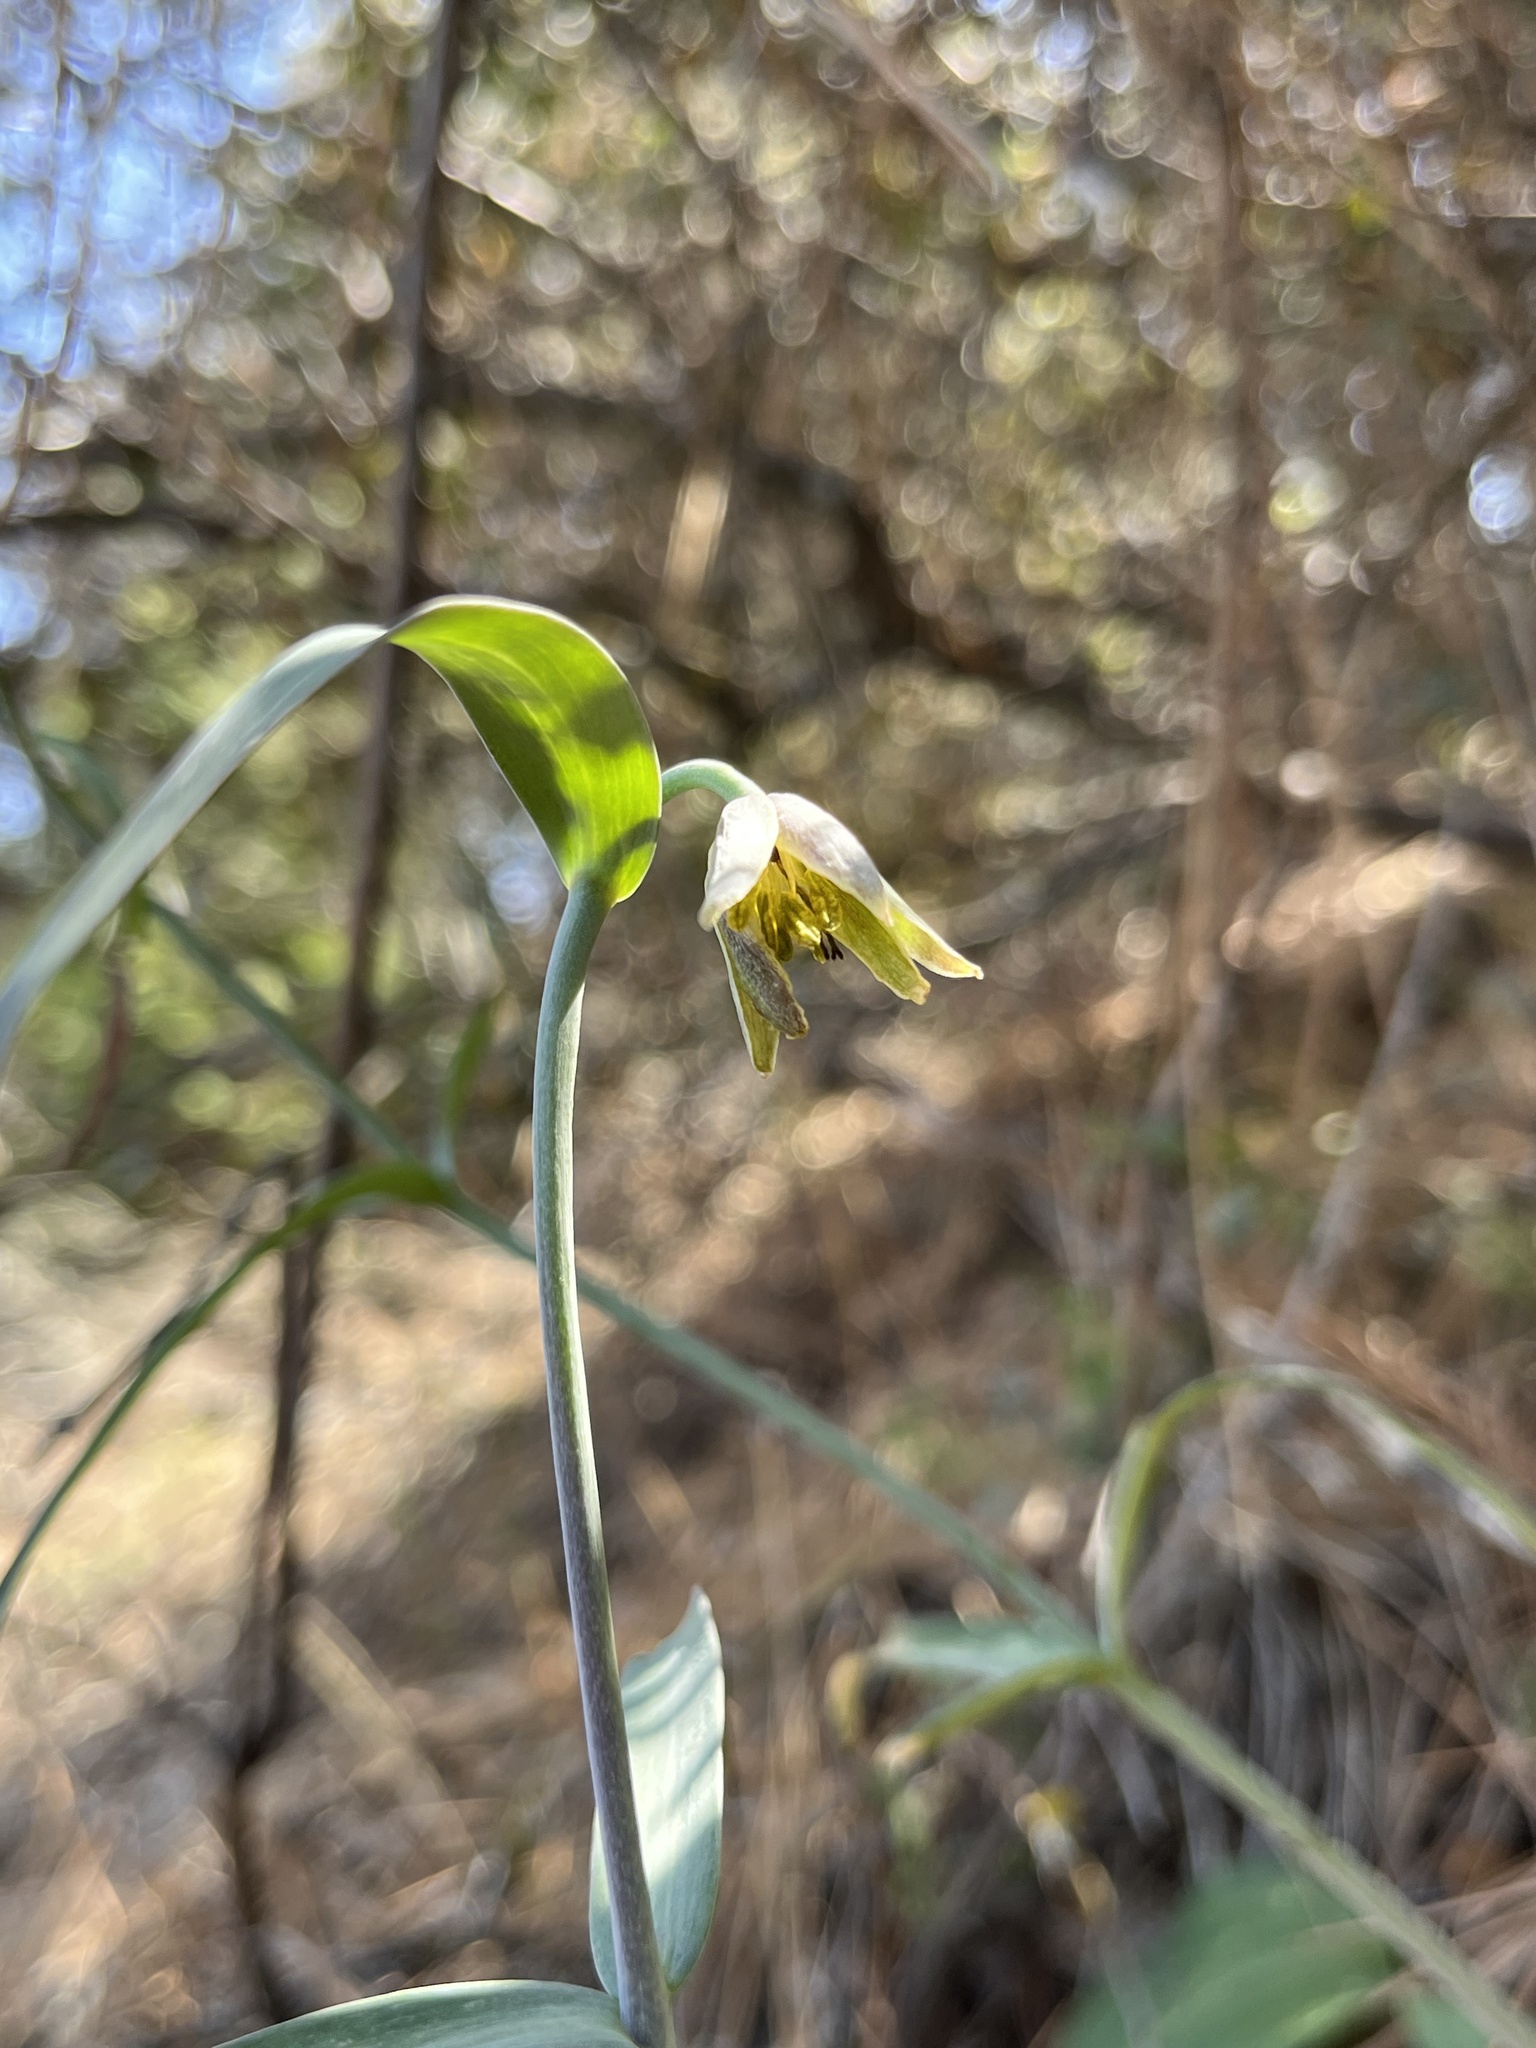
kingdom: Plantae
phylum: Tracheophyta
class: Liliopsida
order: Liliales
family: Liliaceae
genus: Fritillaria
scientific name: Fritillaria viridea
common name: San benito fritillary
